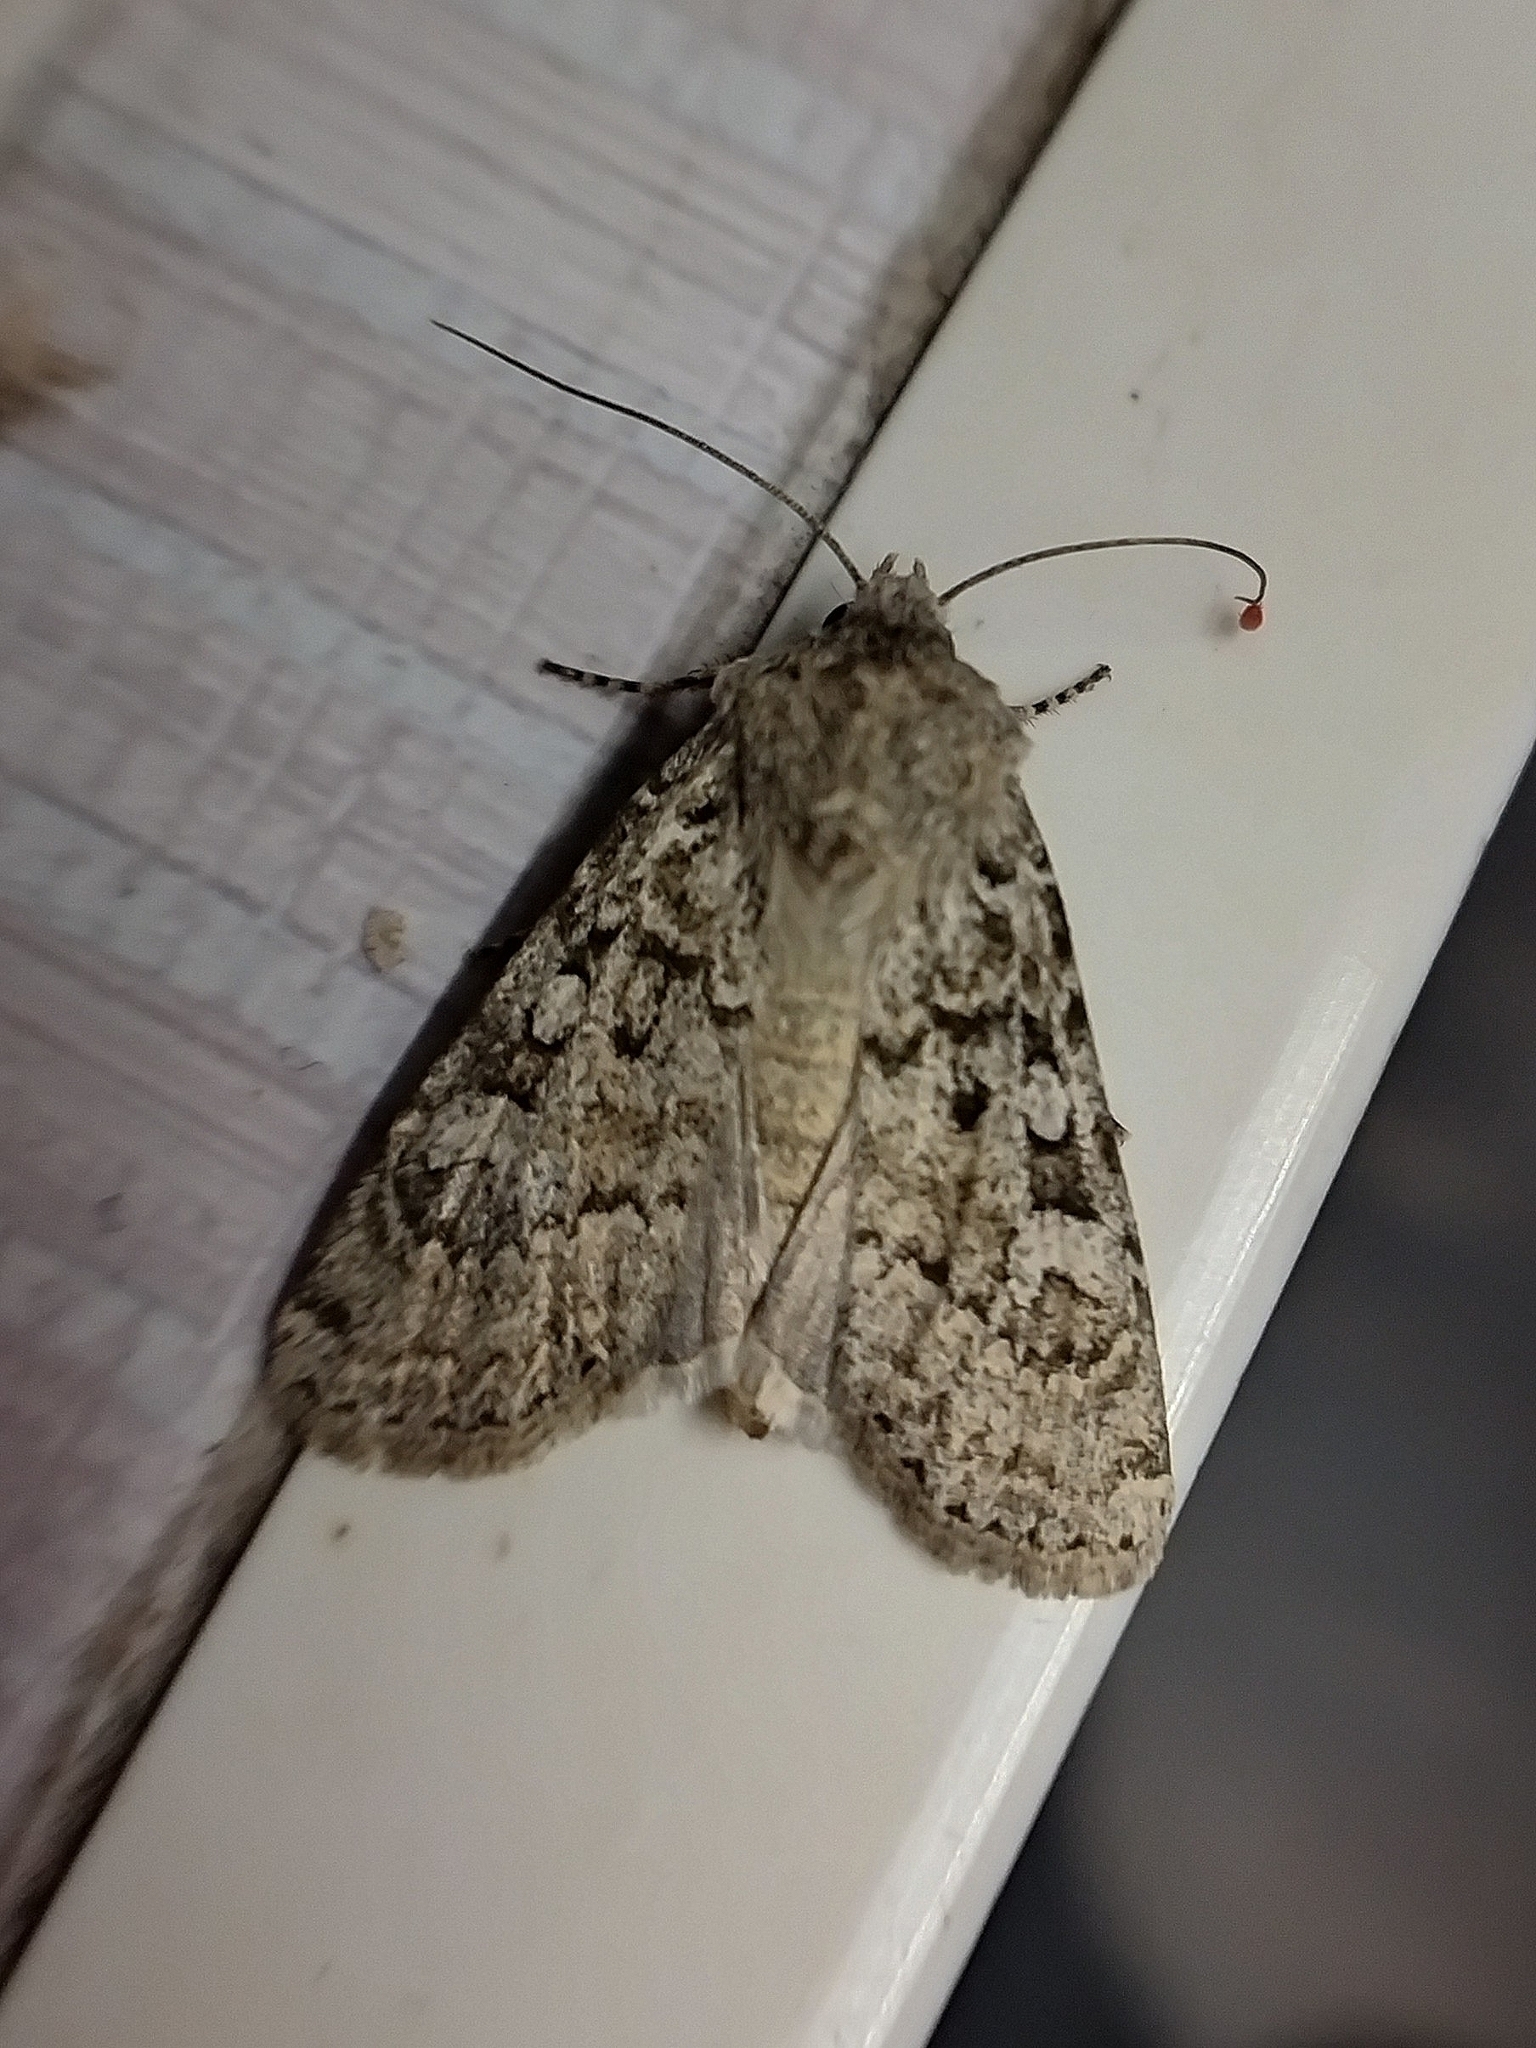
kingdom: Animalia
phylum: Arthropoda
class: Insecta
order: Lepidoptera
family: Noctuidae
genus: Euxoa
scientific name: Euxoa deserta
